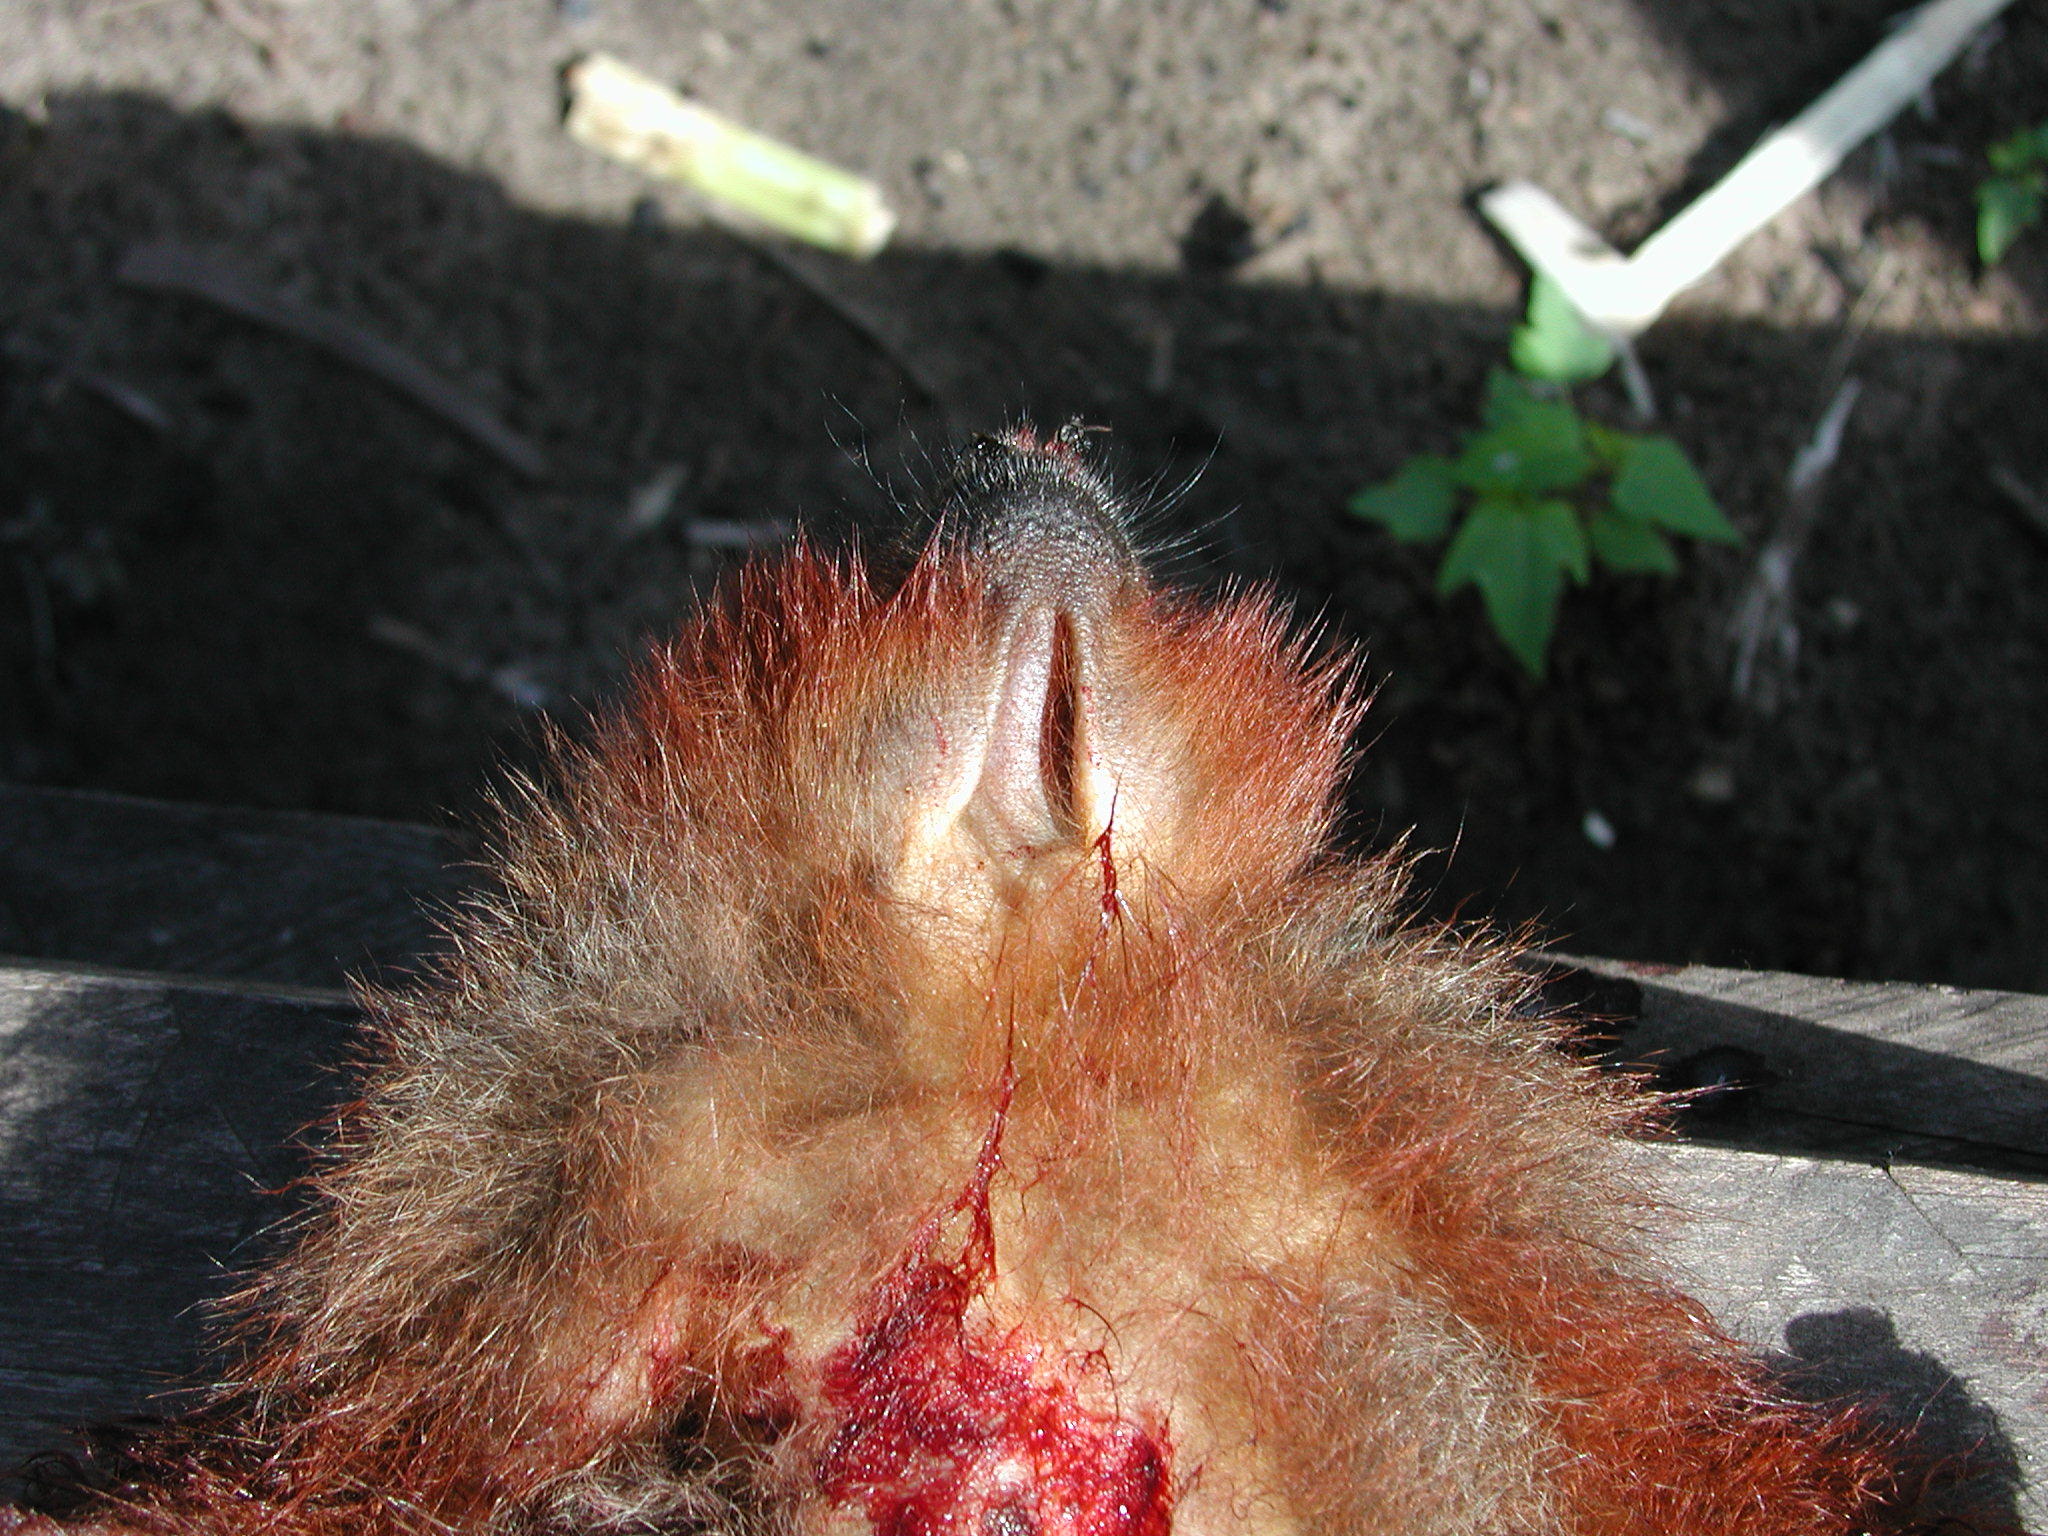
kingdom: Animalia
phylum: Chordata
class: Mammalia
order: Primates
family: Pitheciidae
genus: Plecturocebus
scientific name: Plecturocebus toppini
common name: Toppin's titi
